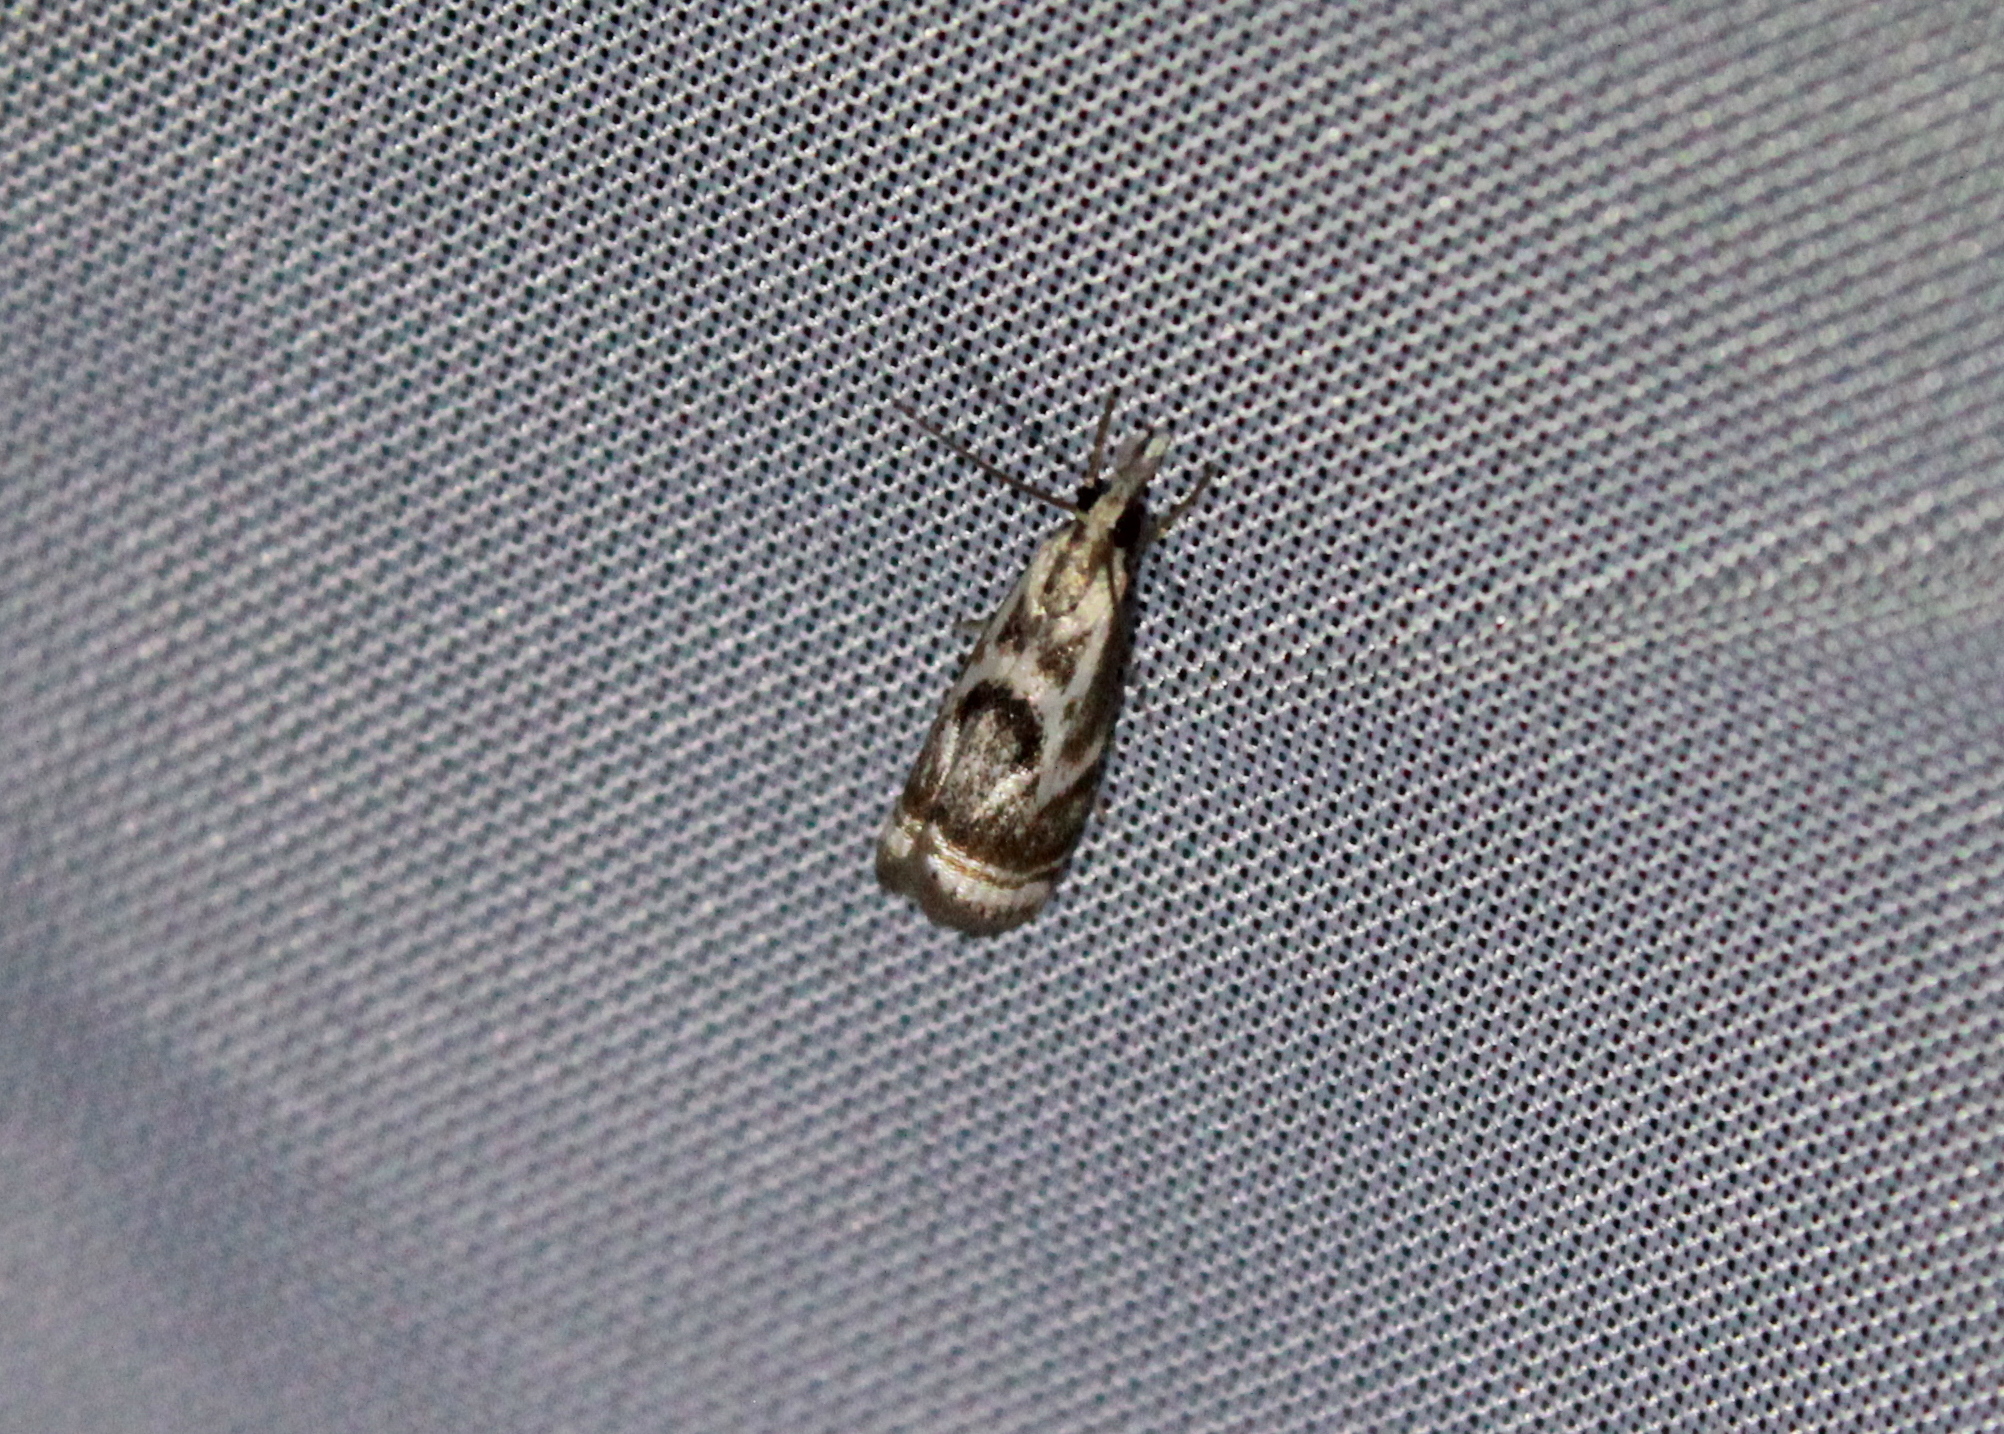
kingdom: Animalia
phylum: Arthropoda
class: Insecta
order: Lepidoptera
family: Crambidae
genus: Microcrambus
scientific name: Microcrambus elegans
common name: Elegant grass-veneer
